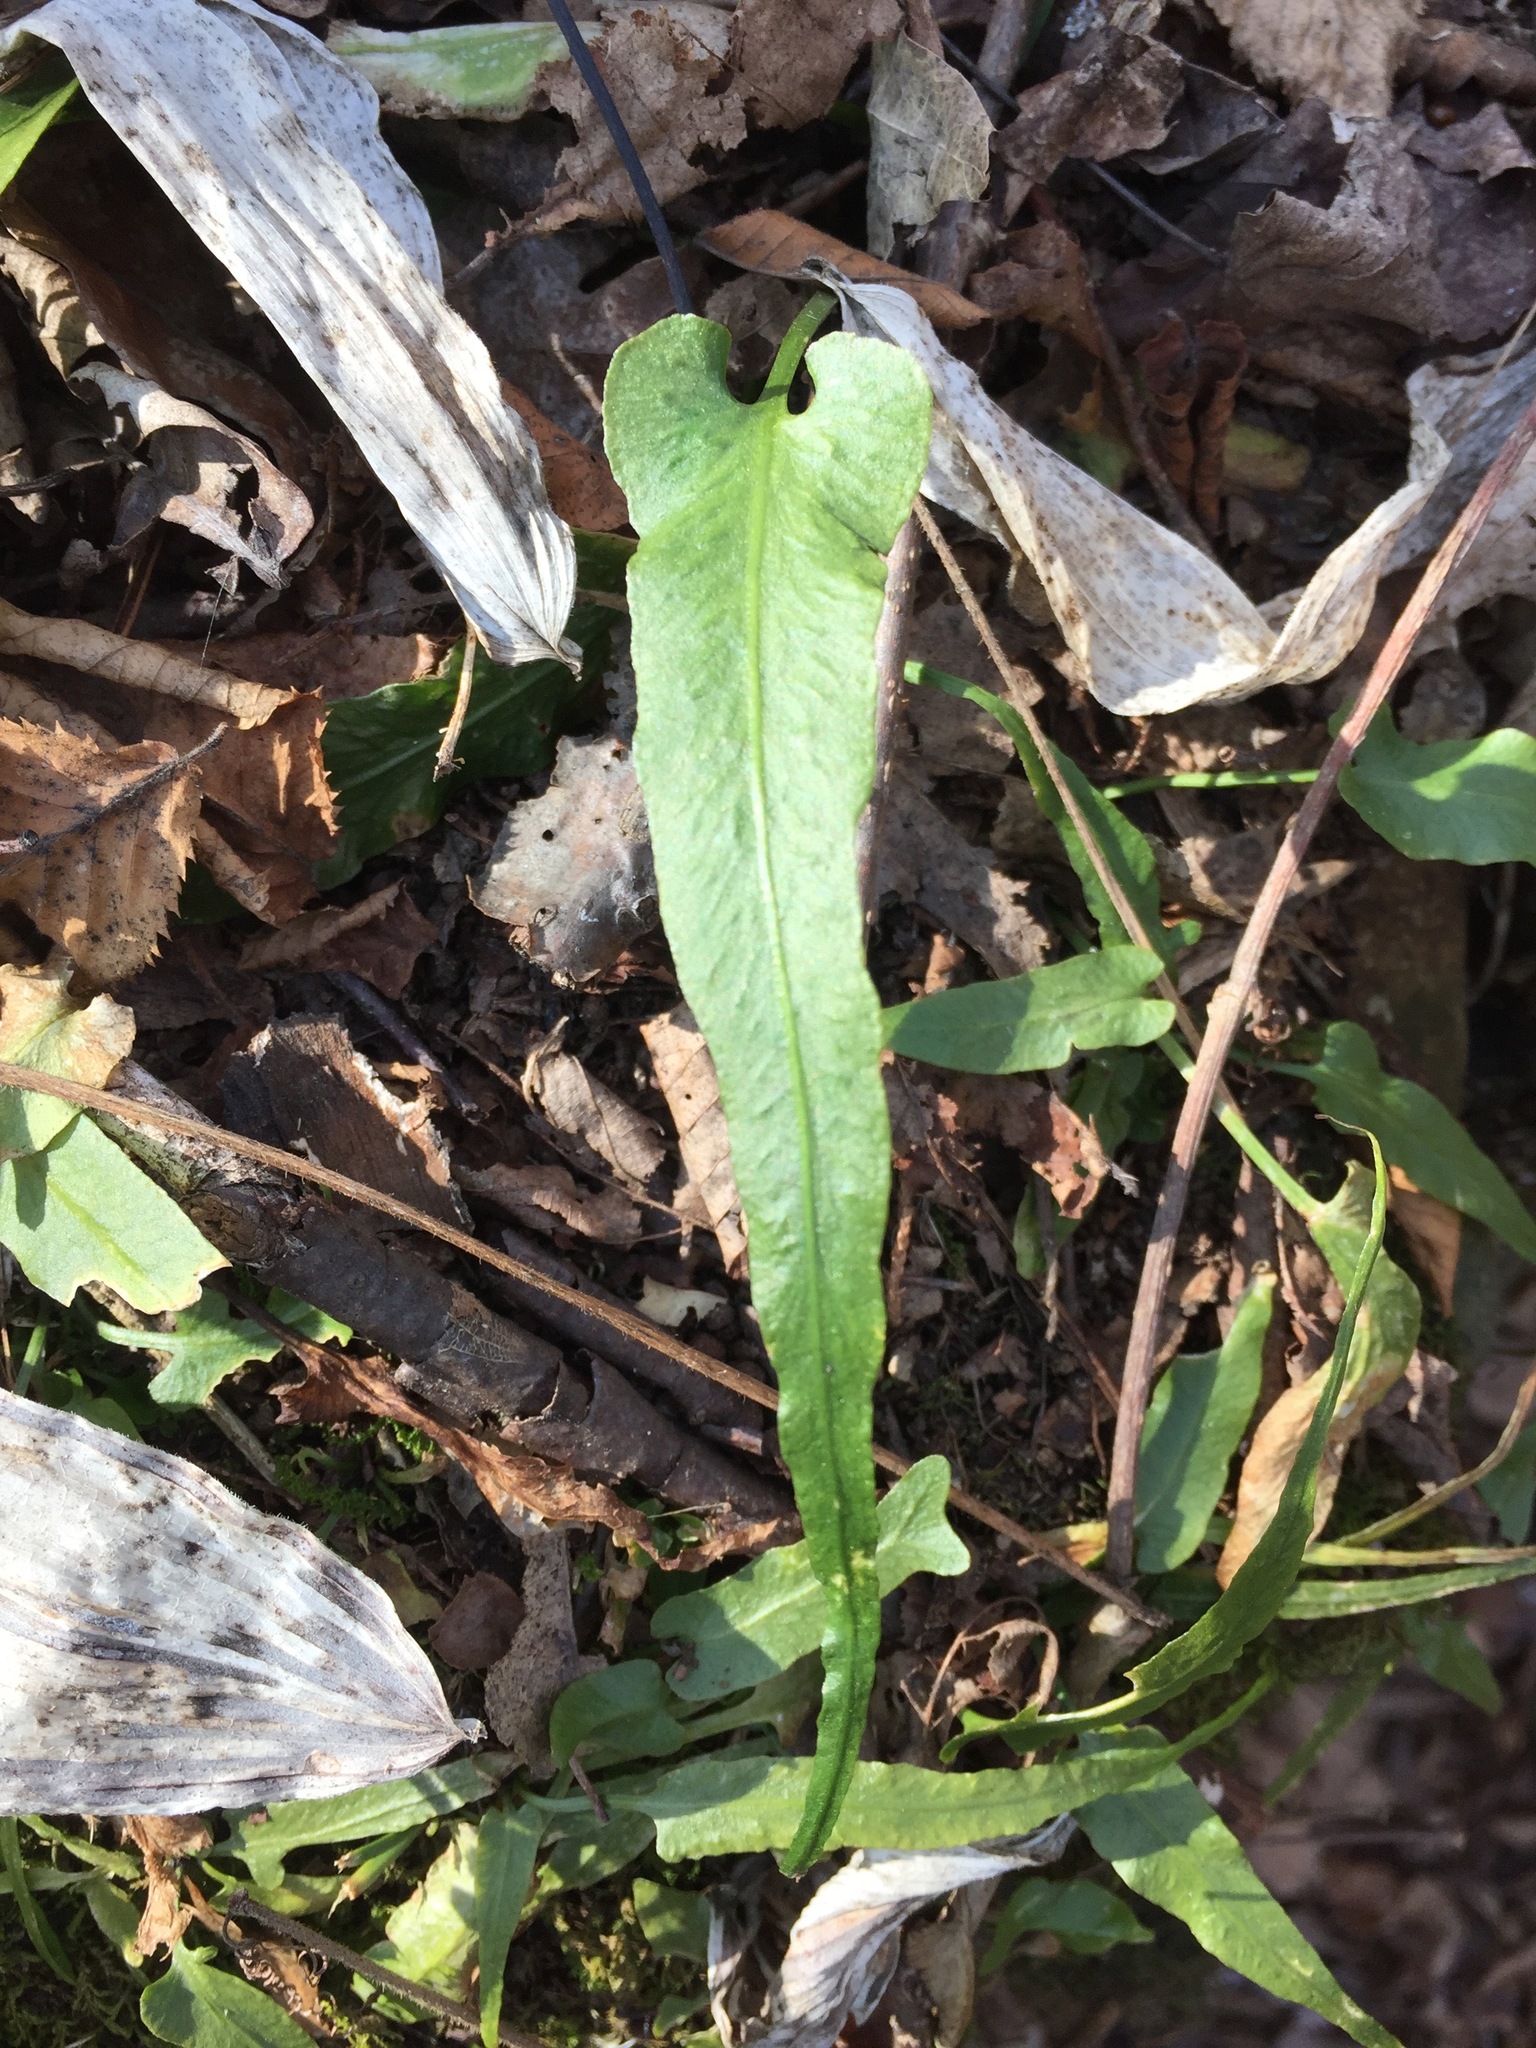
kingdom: Plantae
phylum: Tracheophyta
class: Polypodiopsida
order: Polypodiales
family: Aspleniaceae
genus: Asplenium
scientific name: Asplenium rhizophyllum
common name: Walking fern
